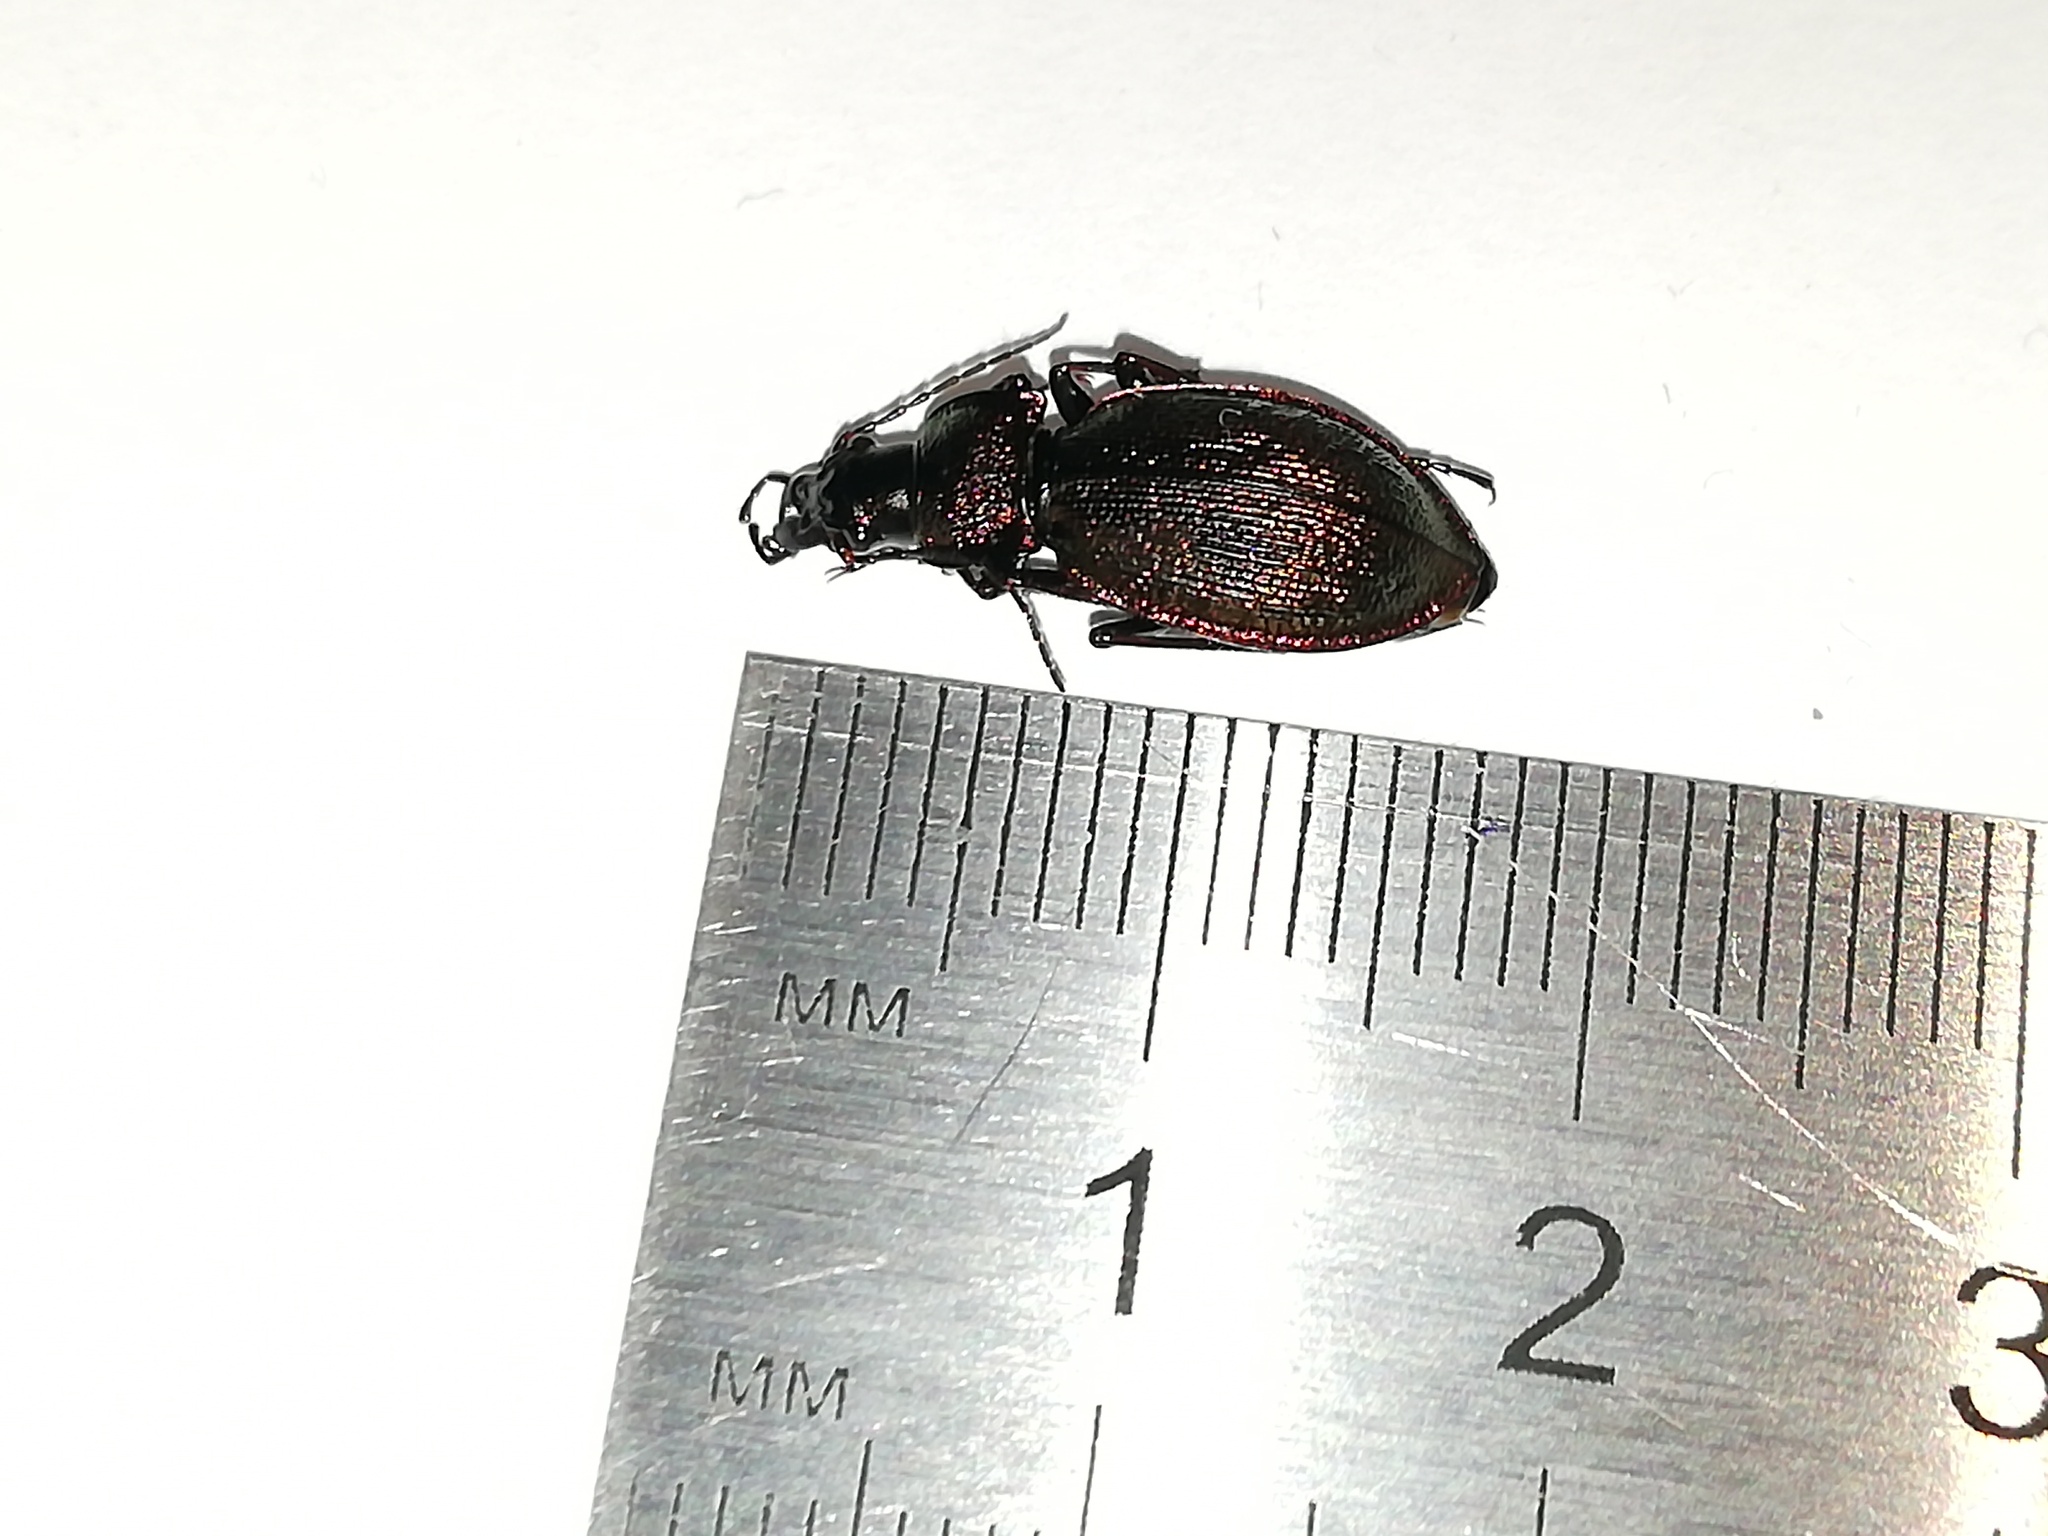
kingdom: Animalia
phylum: Arthropoda
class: Insecta
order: Coleoptera
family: Carabidae
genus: Carabus
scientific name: Carabus leachii
